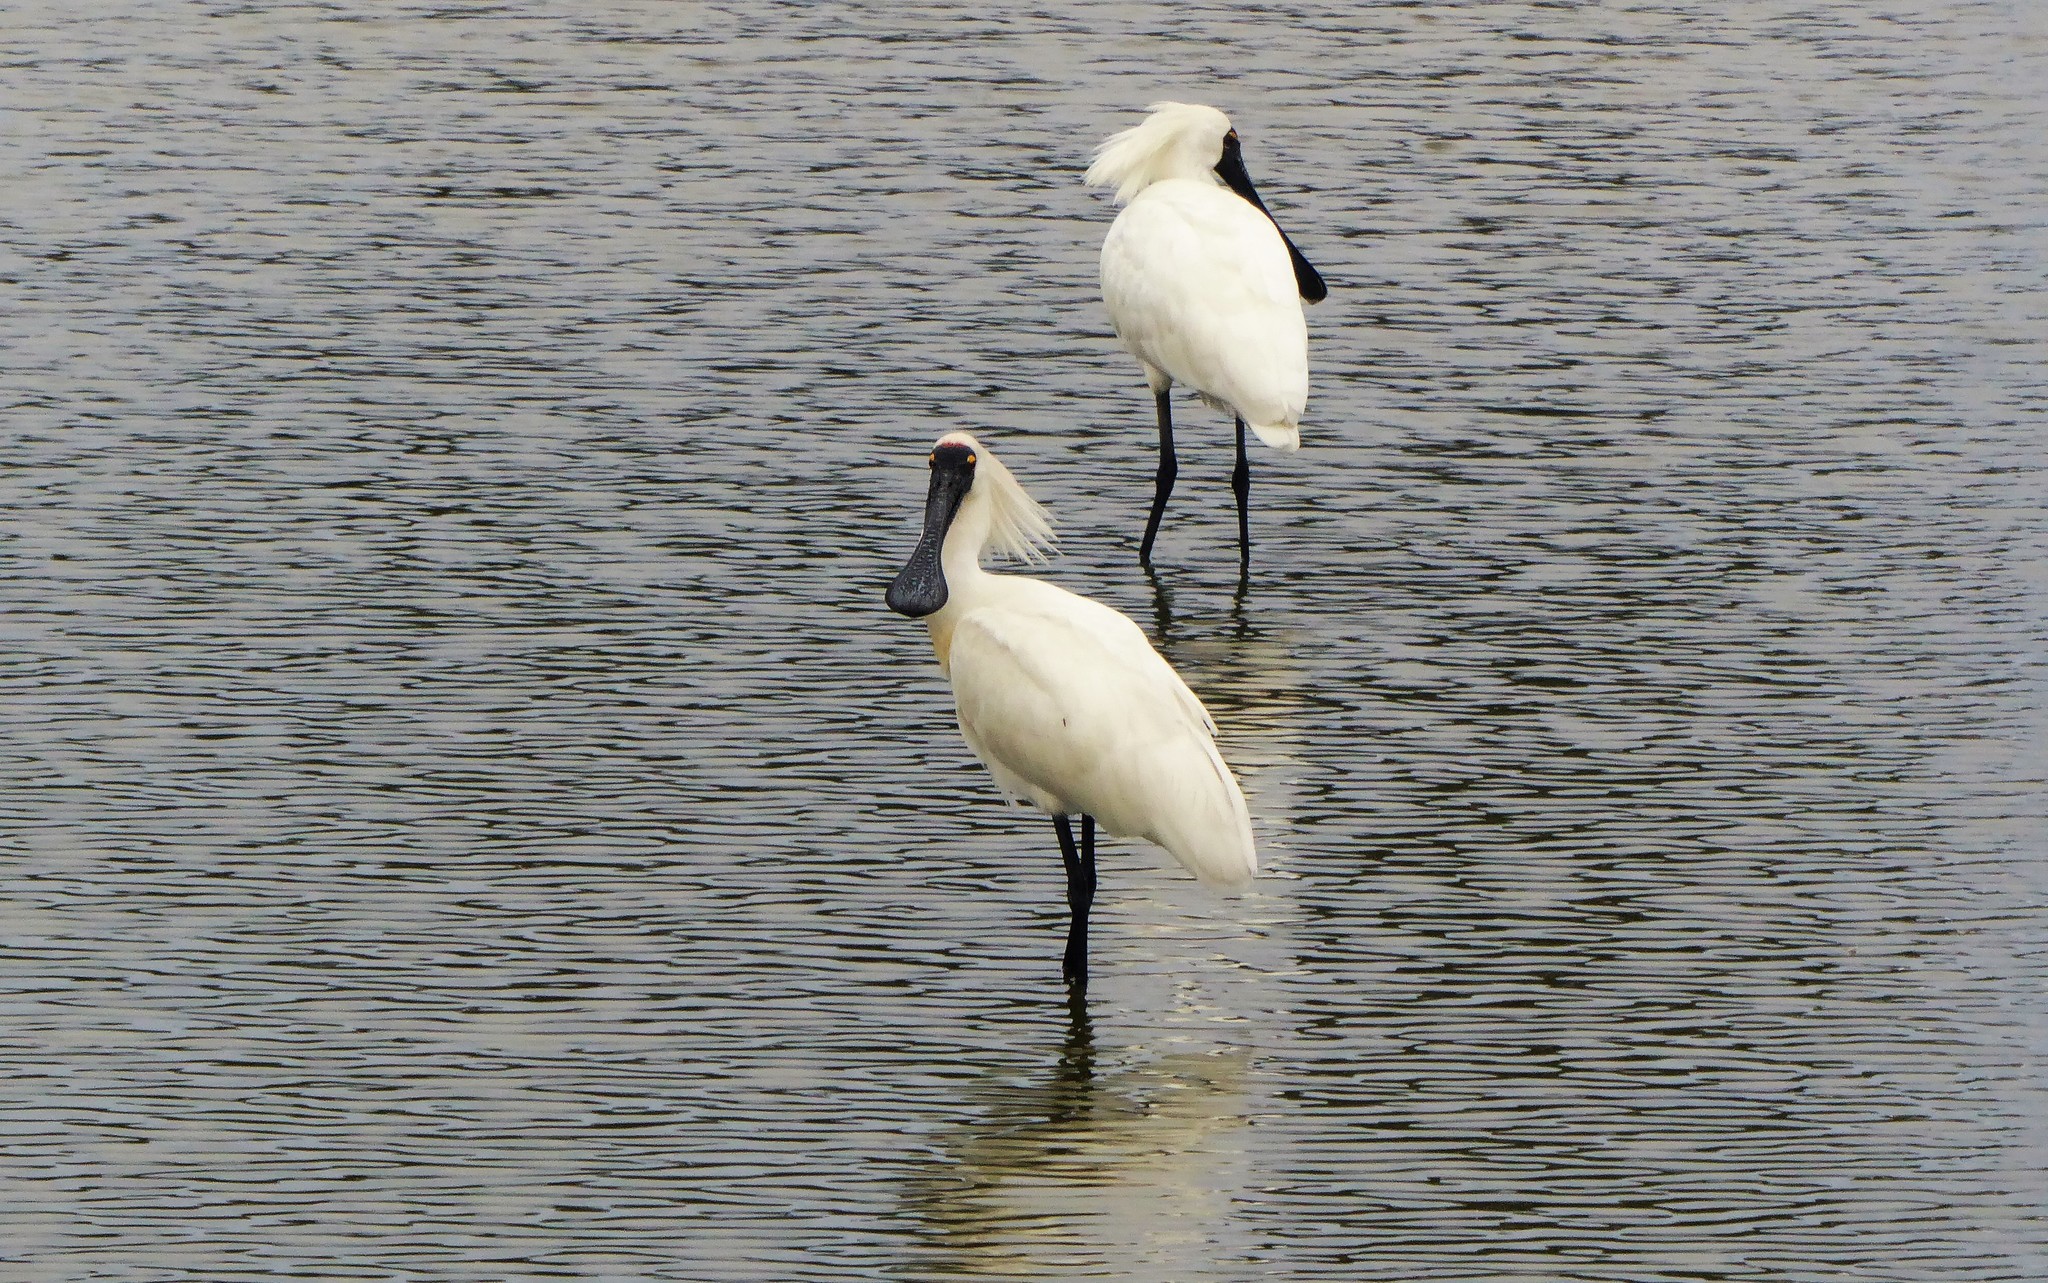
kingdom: Animalia
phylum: Chordata
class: Aves
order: Pelecaniformes
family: Threskiornithidae
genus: Platalea
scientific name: Platalea regia
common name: Royal spoonbill
